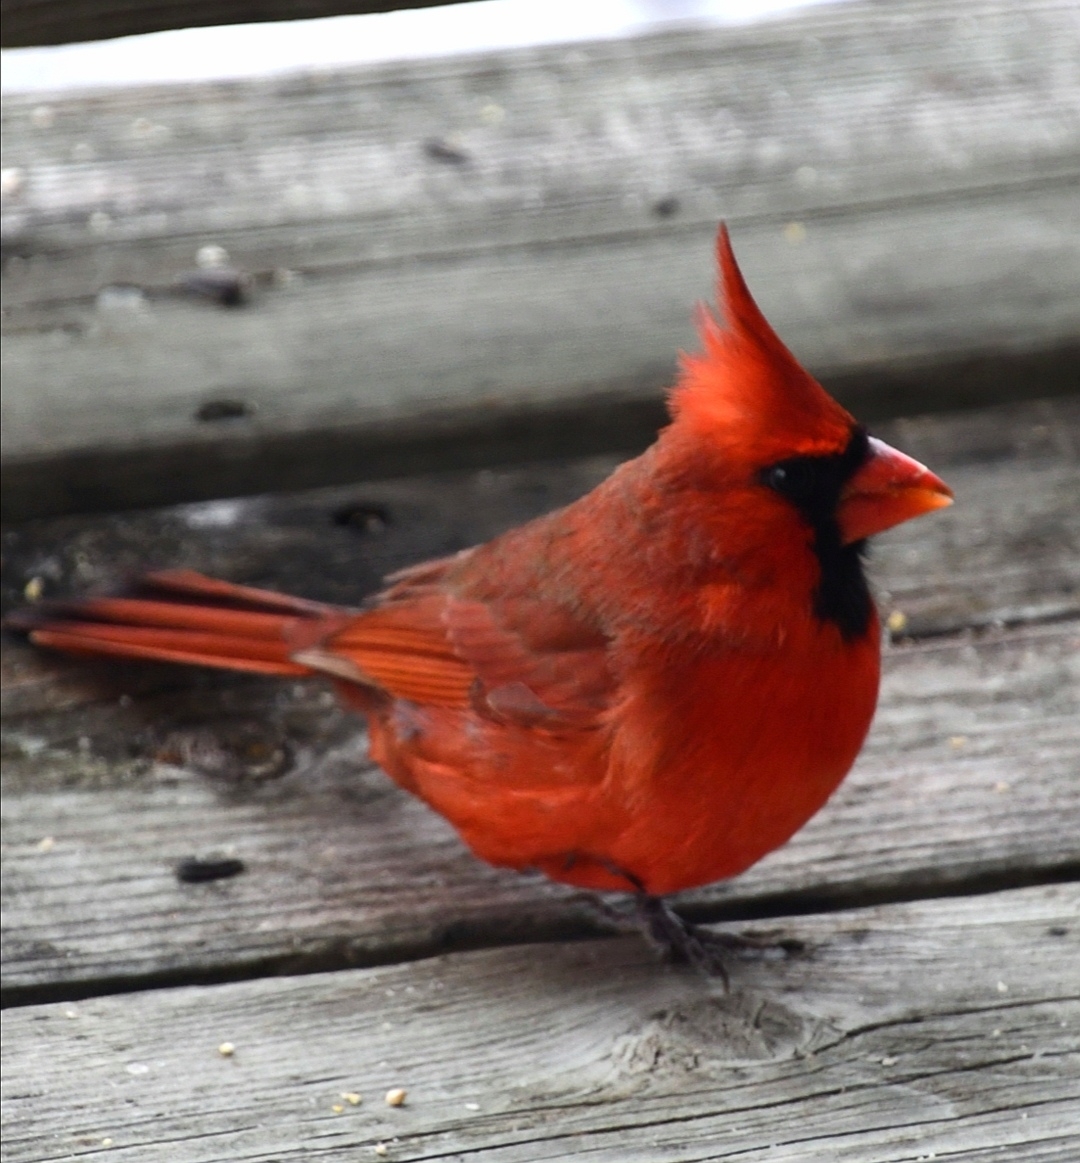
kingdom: Animalia
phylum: Chordata
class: Aves
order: Passeriformes
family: Cardinalidae
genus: Cardinalis
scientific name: Cardinalis cardinalis
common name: Northern cardinal
